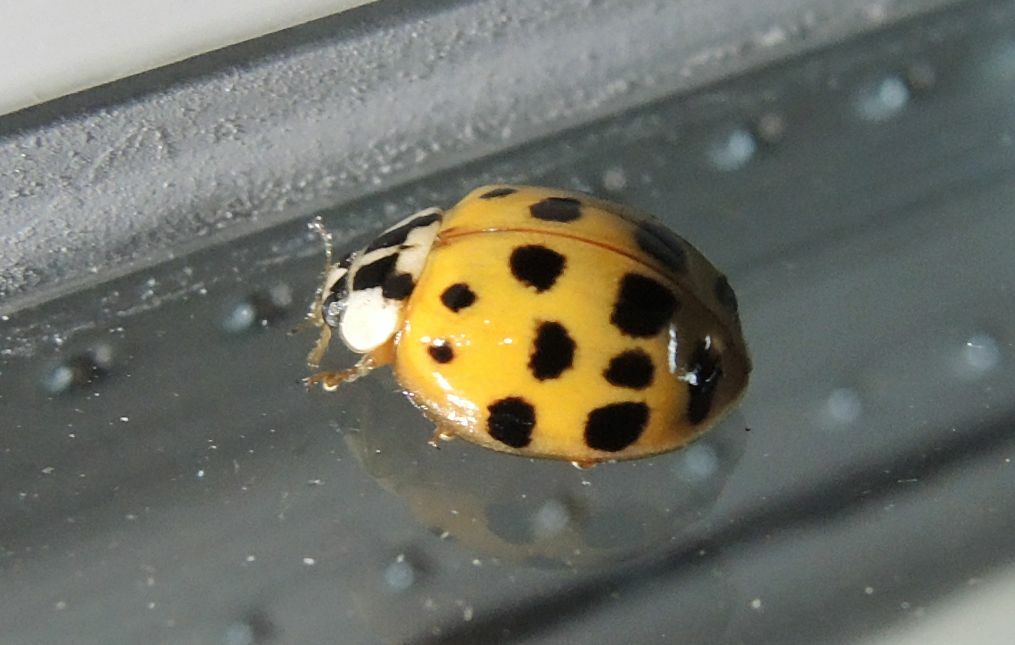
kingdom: Animalia
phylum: Arthropoda
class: Insecta
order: Coleoptera
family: Coccinellidae
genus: Harmonia
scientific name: Harmonia axyridis
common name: Harlequin ladybird
